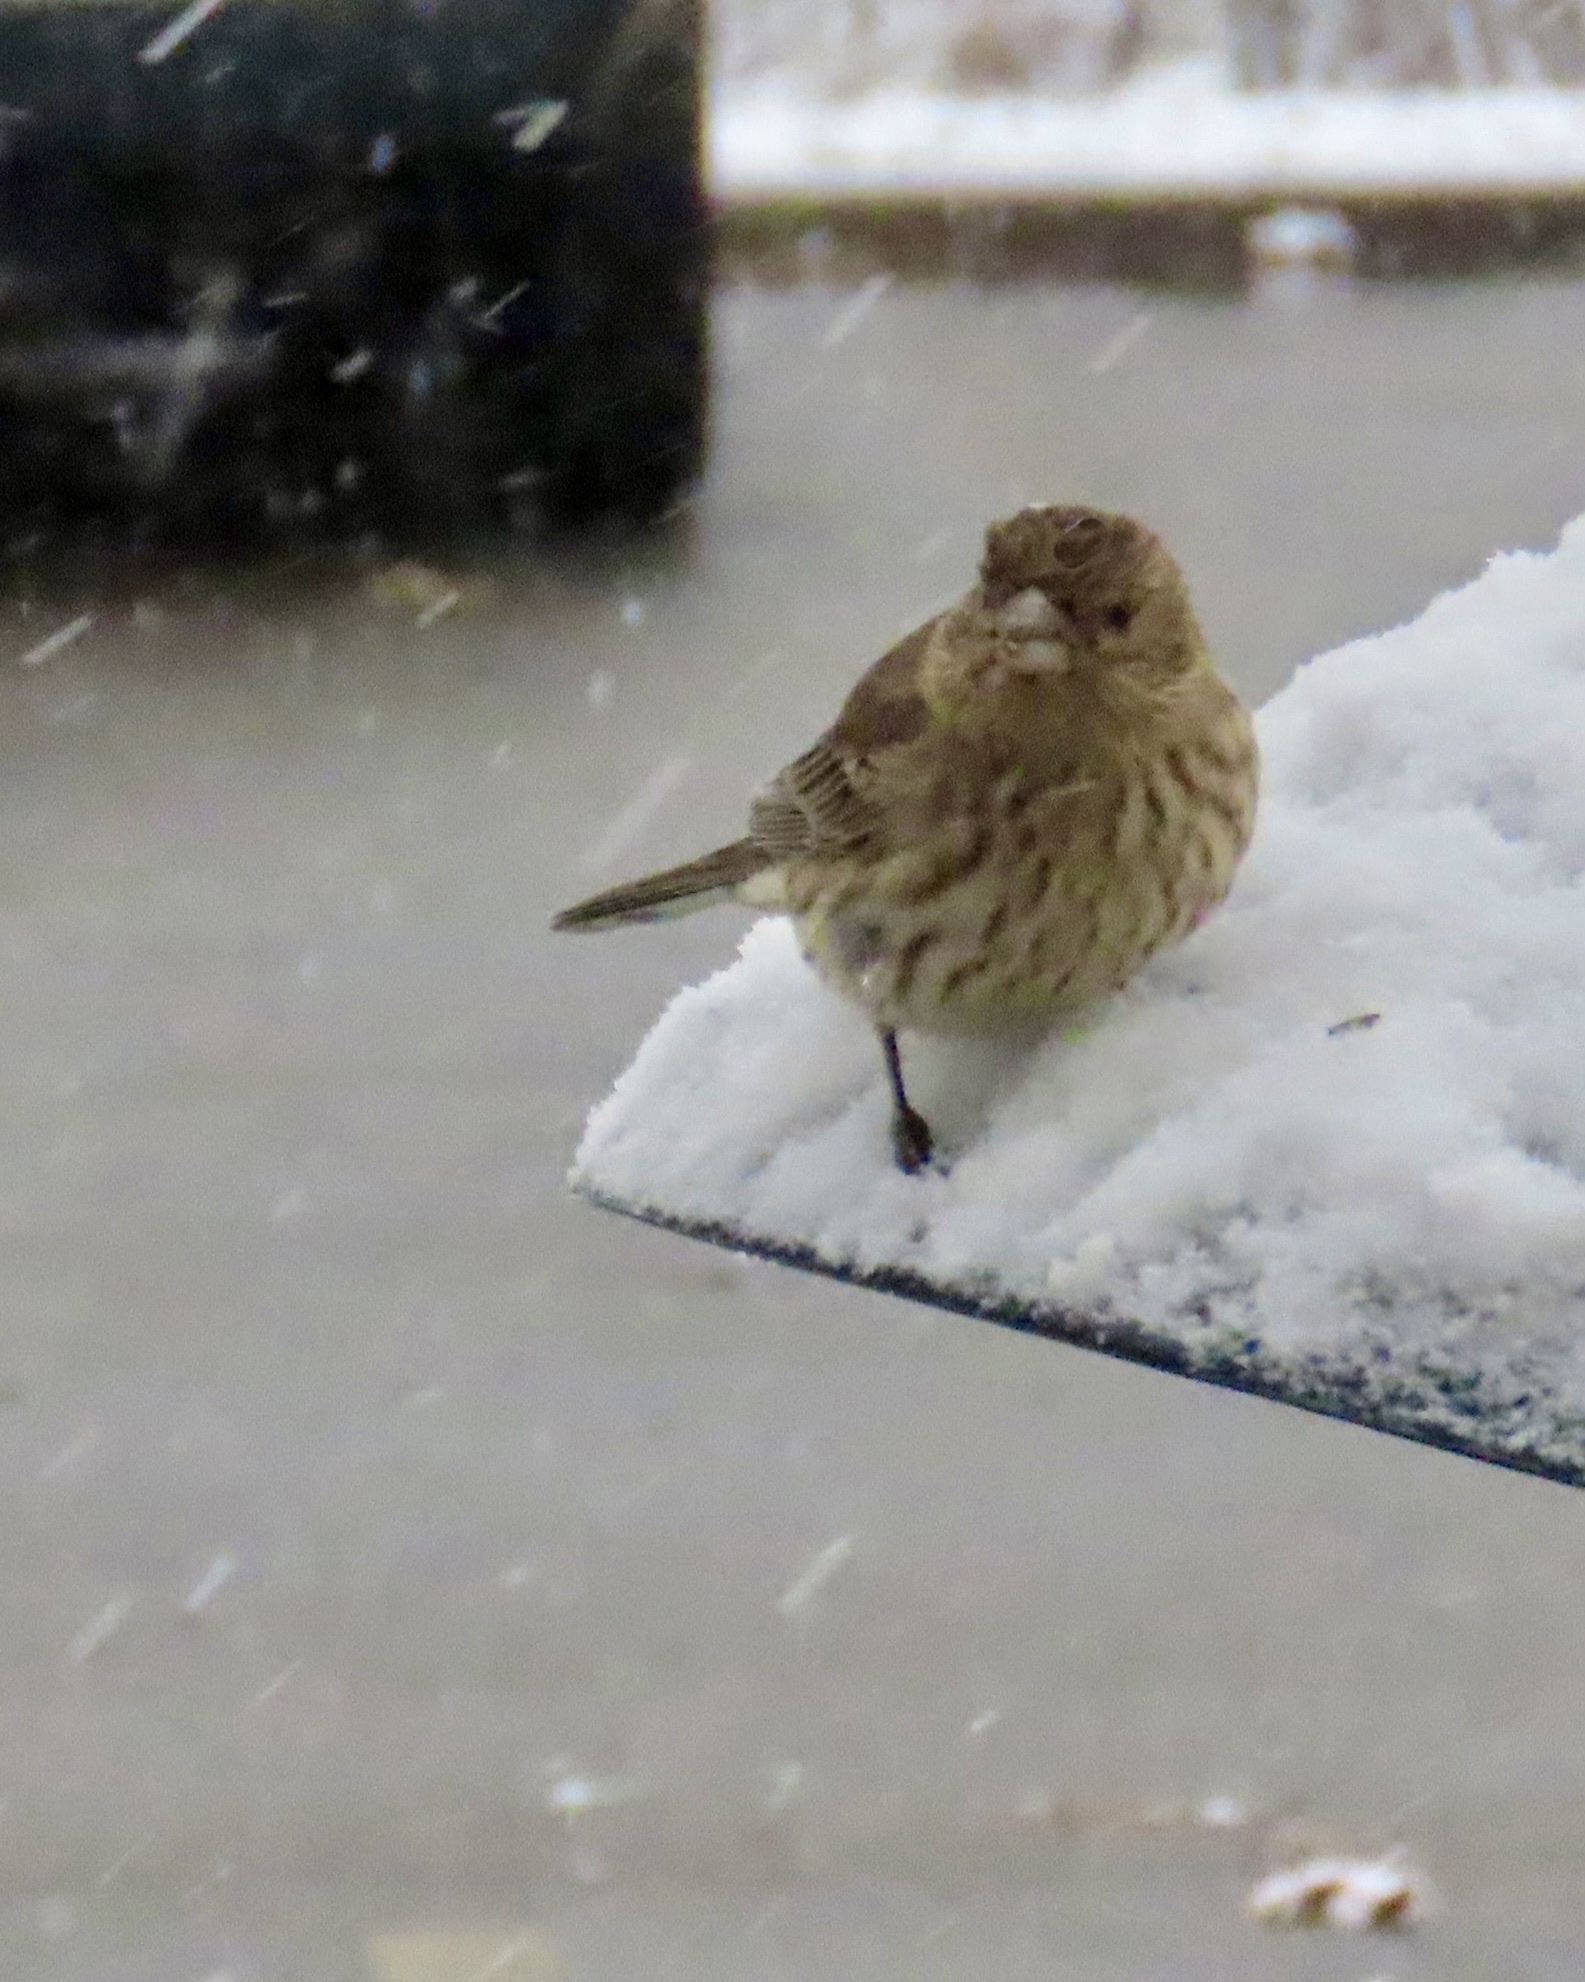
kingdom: Animalia
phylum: Chordata
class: Aves
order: Passeriformes
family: Fringillidae
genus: Haemorhous
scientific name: Haemorhous mexicanus
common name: House finch
